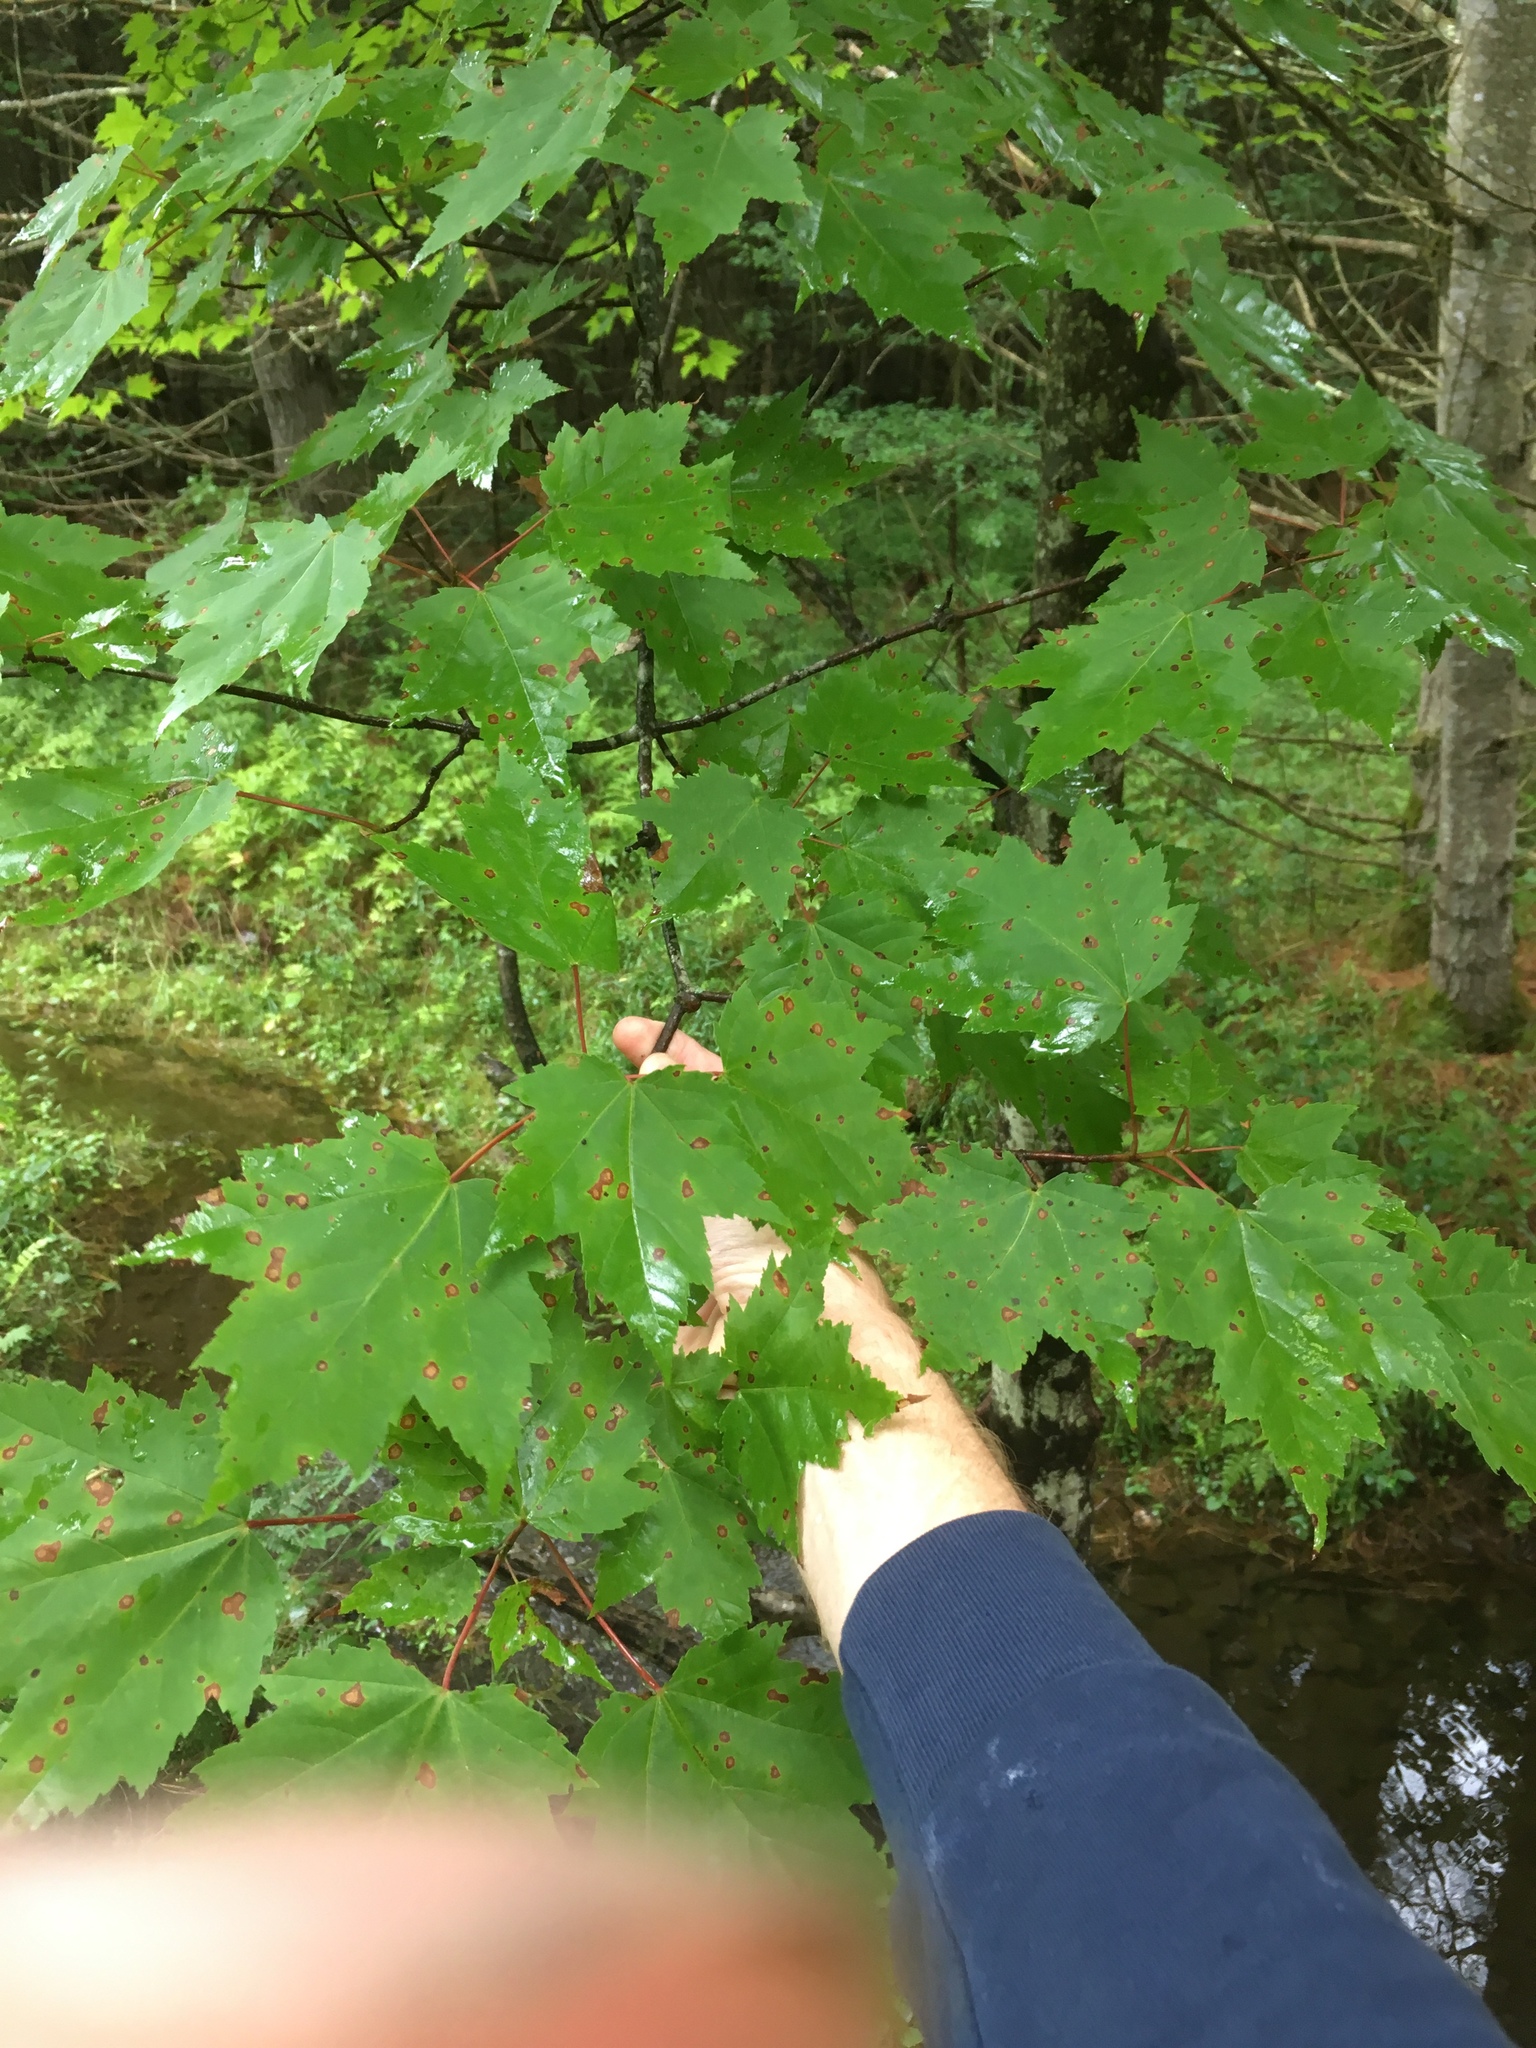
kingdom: Plantae
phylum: Tracheophyta
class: Magnoliopsida
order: Sapindales
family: Sapindaceae
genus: Acer
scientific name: Acer rubrum
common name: Red maple
